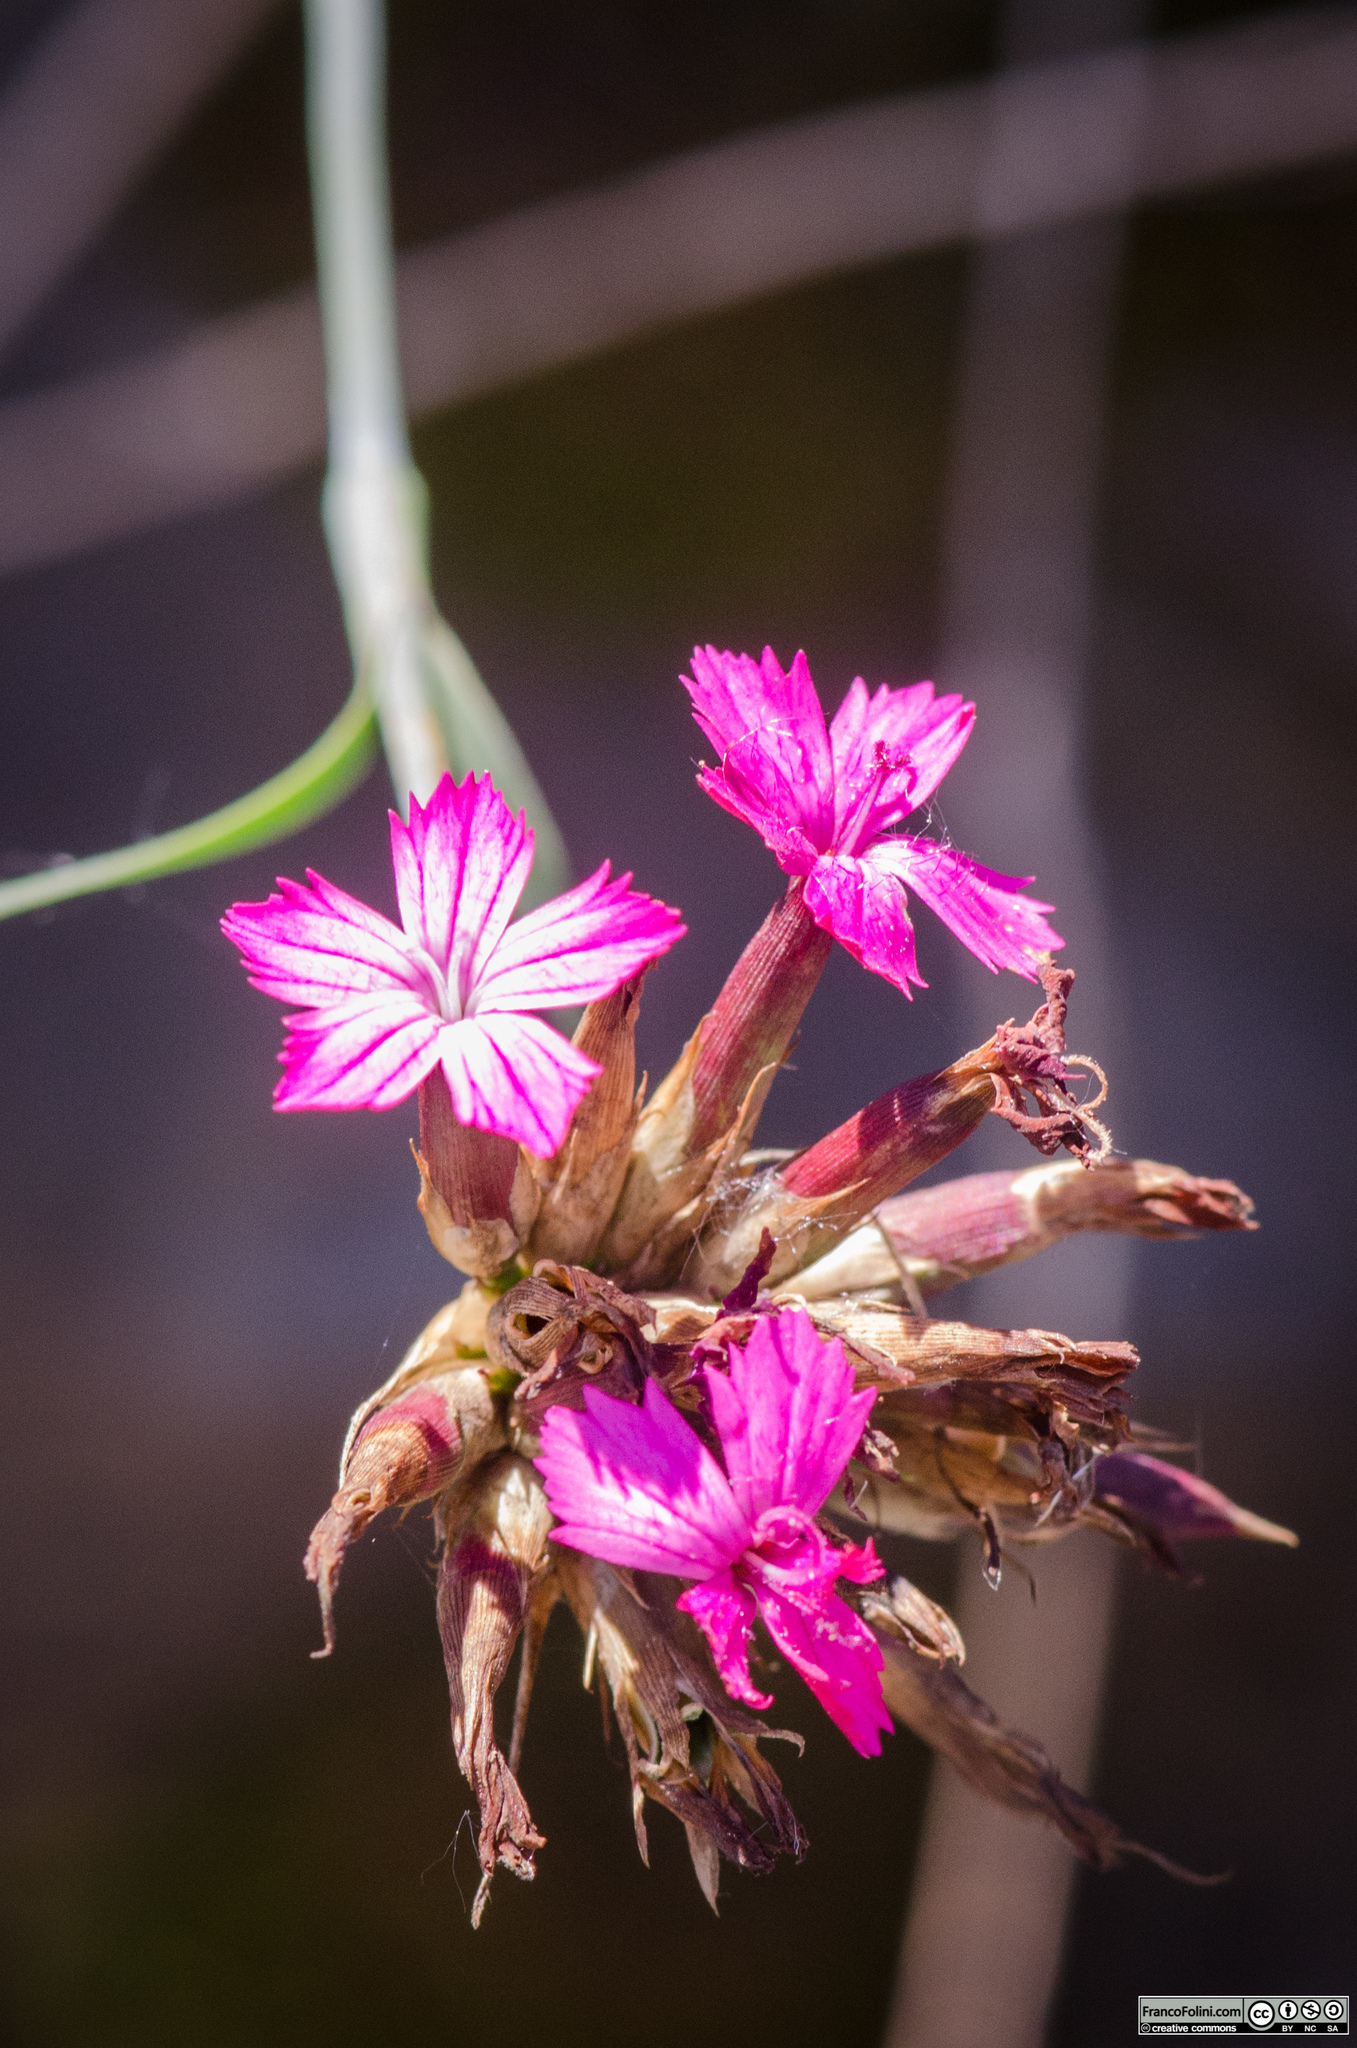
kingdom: Plantae
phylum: Tracheophyta
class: Magnoliopsida
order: Caryophyllales
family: Caryophyllaceae
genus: Dianthus
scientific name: Dianthus carthusianorum
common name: Carthusian pink
